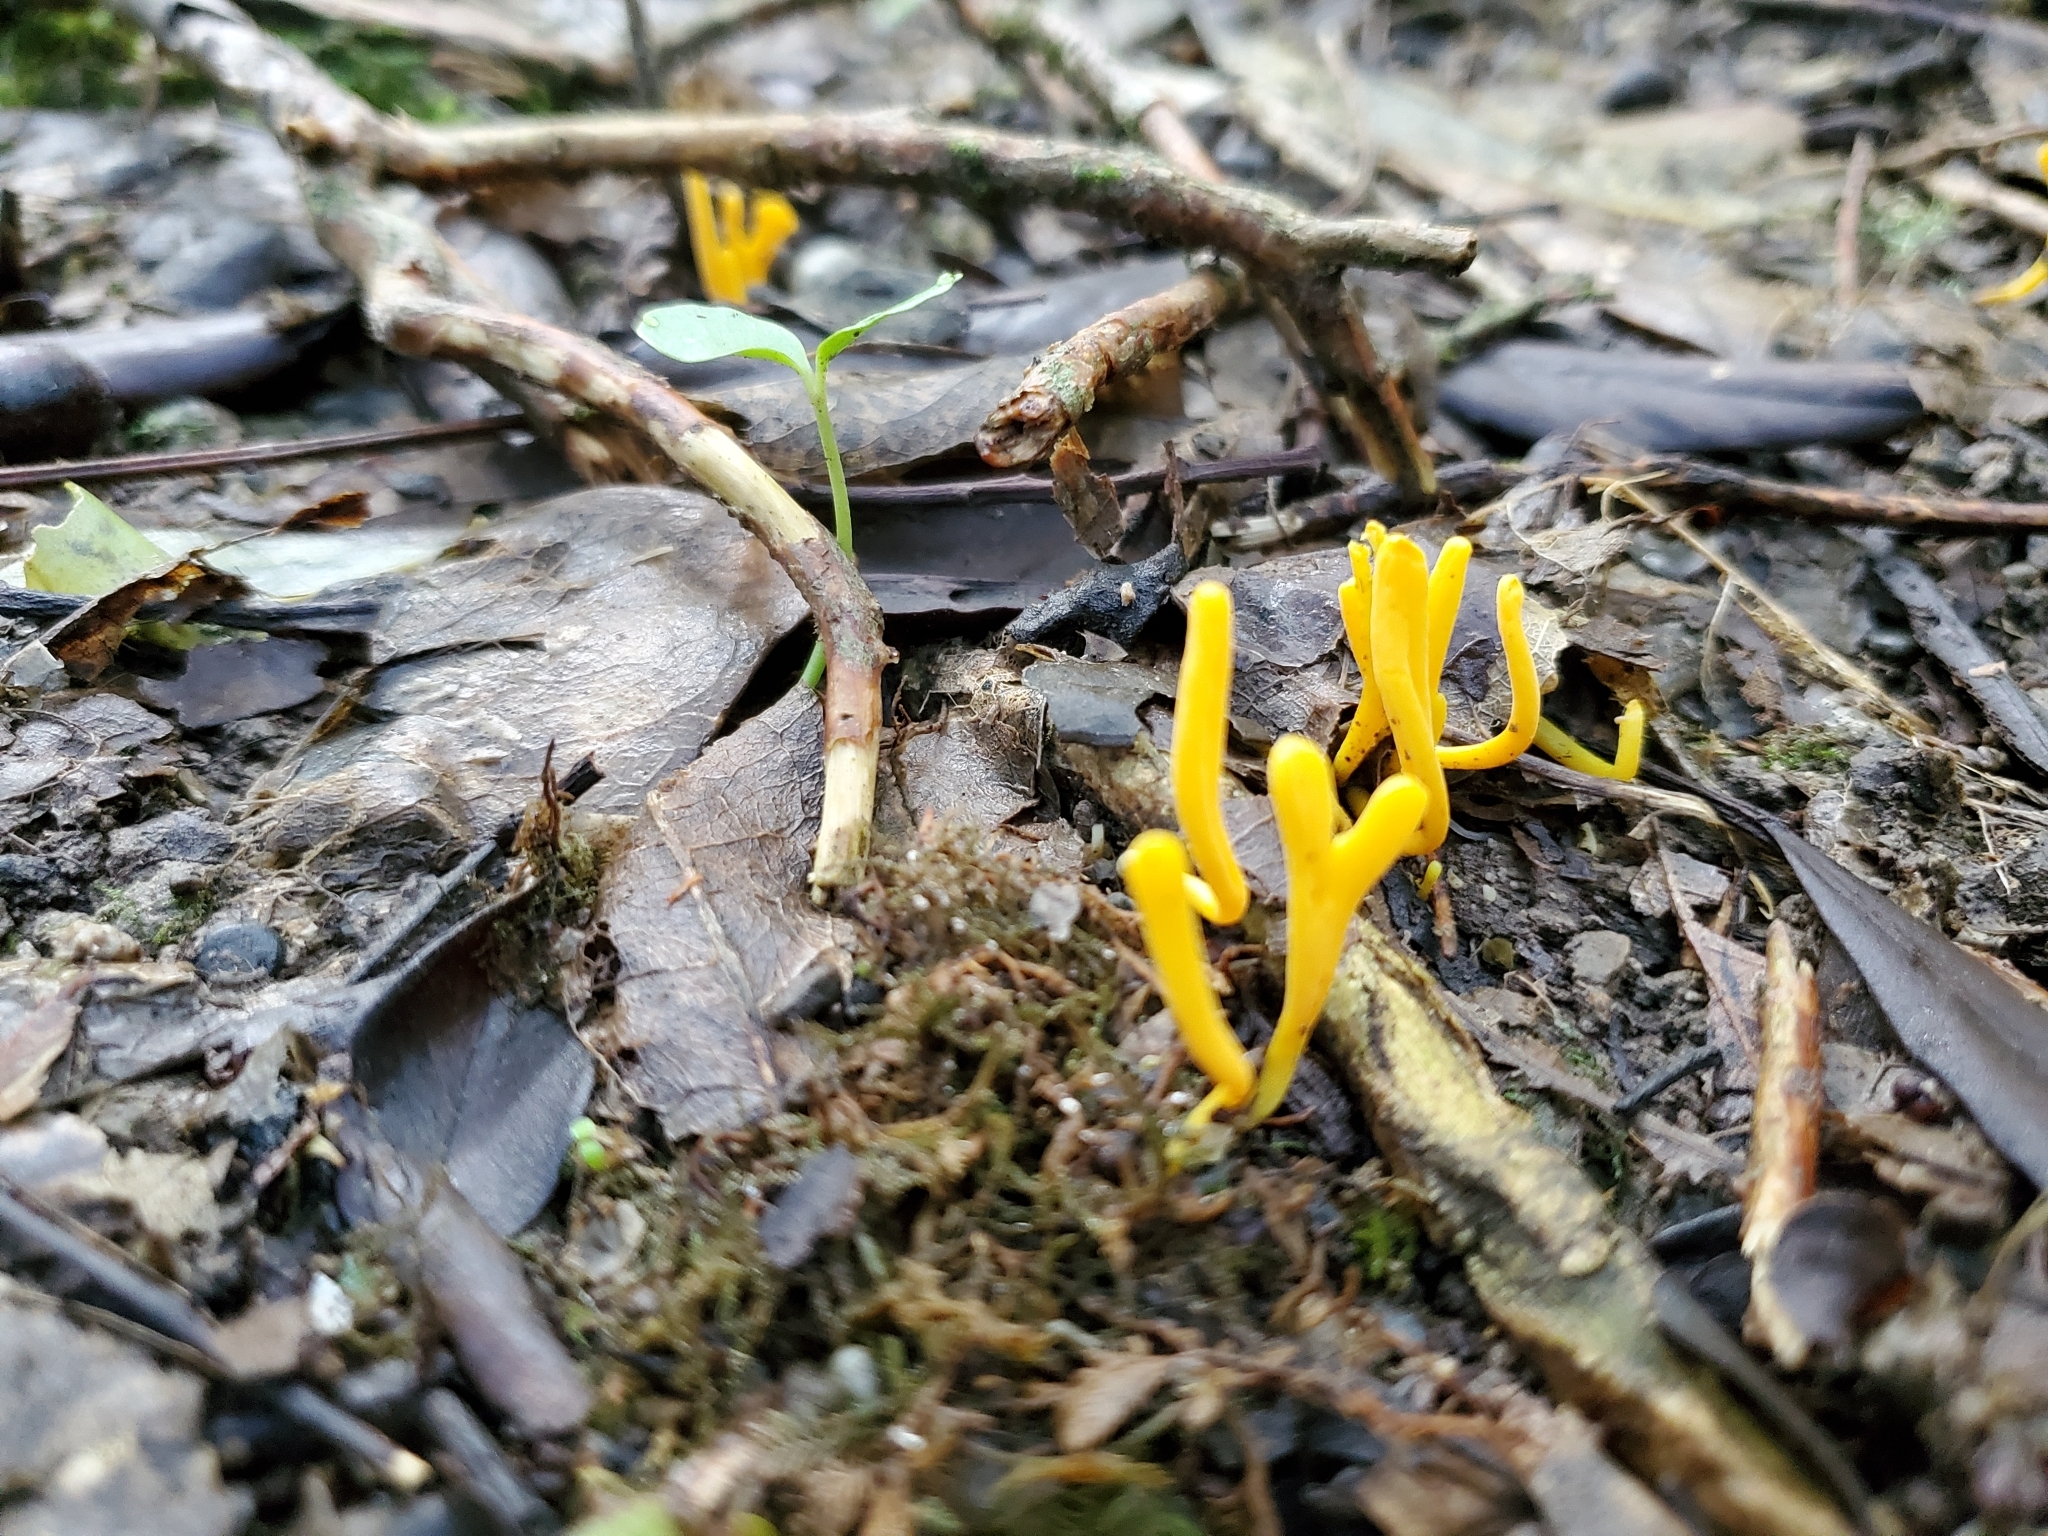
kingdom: Fungi
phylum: Basidiomycota
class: Agaricomycetes
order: Agaricales
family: Clavariaceae
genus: Clavulinopsis
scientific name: Clavulinopsis archeri
